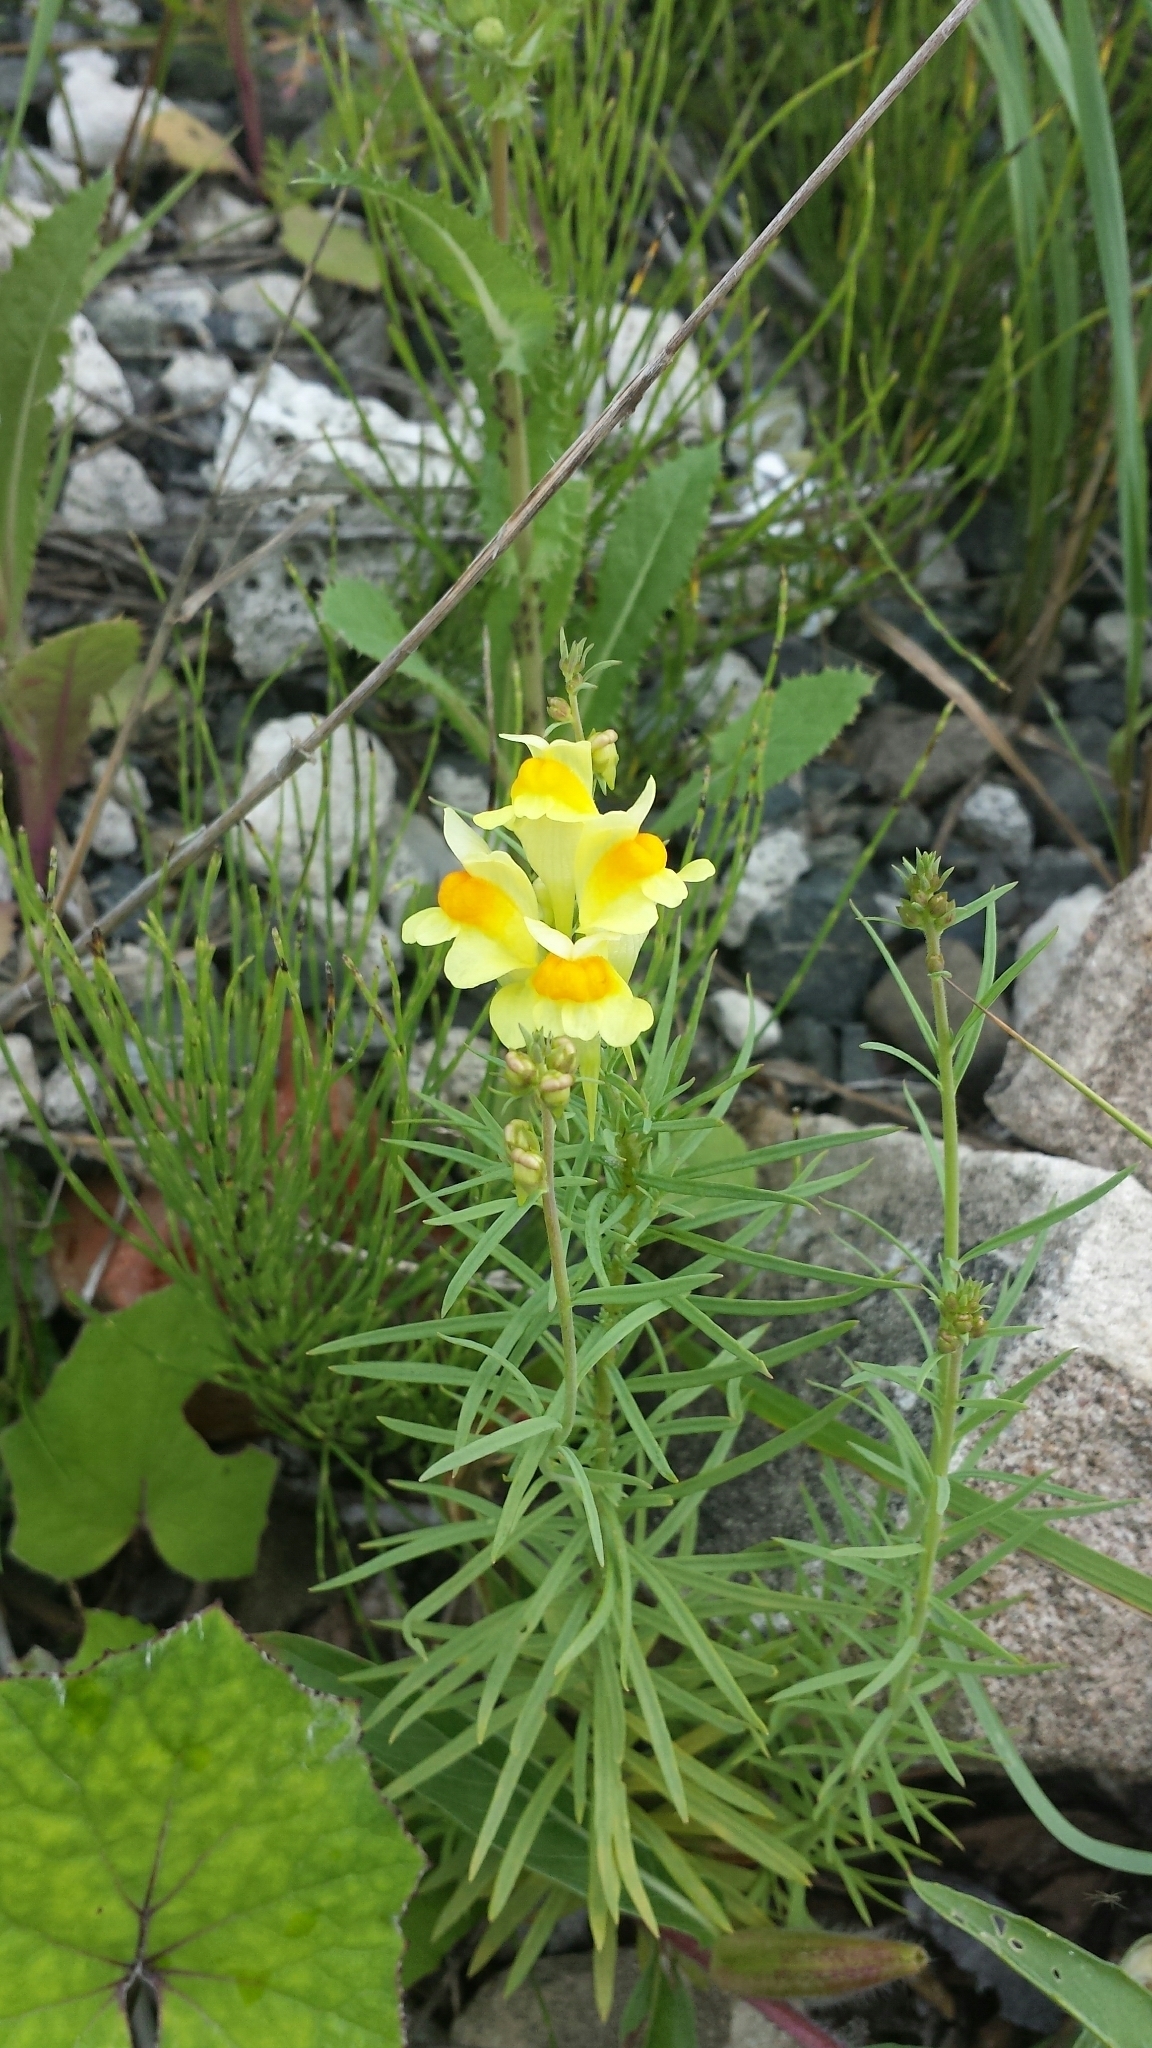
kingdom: Plantae
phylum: Tracheophyta
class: Magnoliopsida
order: Lamiales
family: Plantaginaceae
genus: Linaria
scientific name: Linaria vulgaris
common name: Butter and eggs
